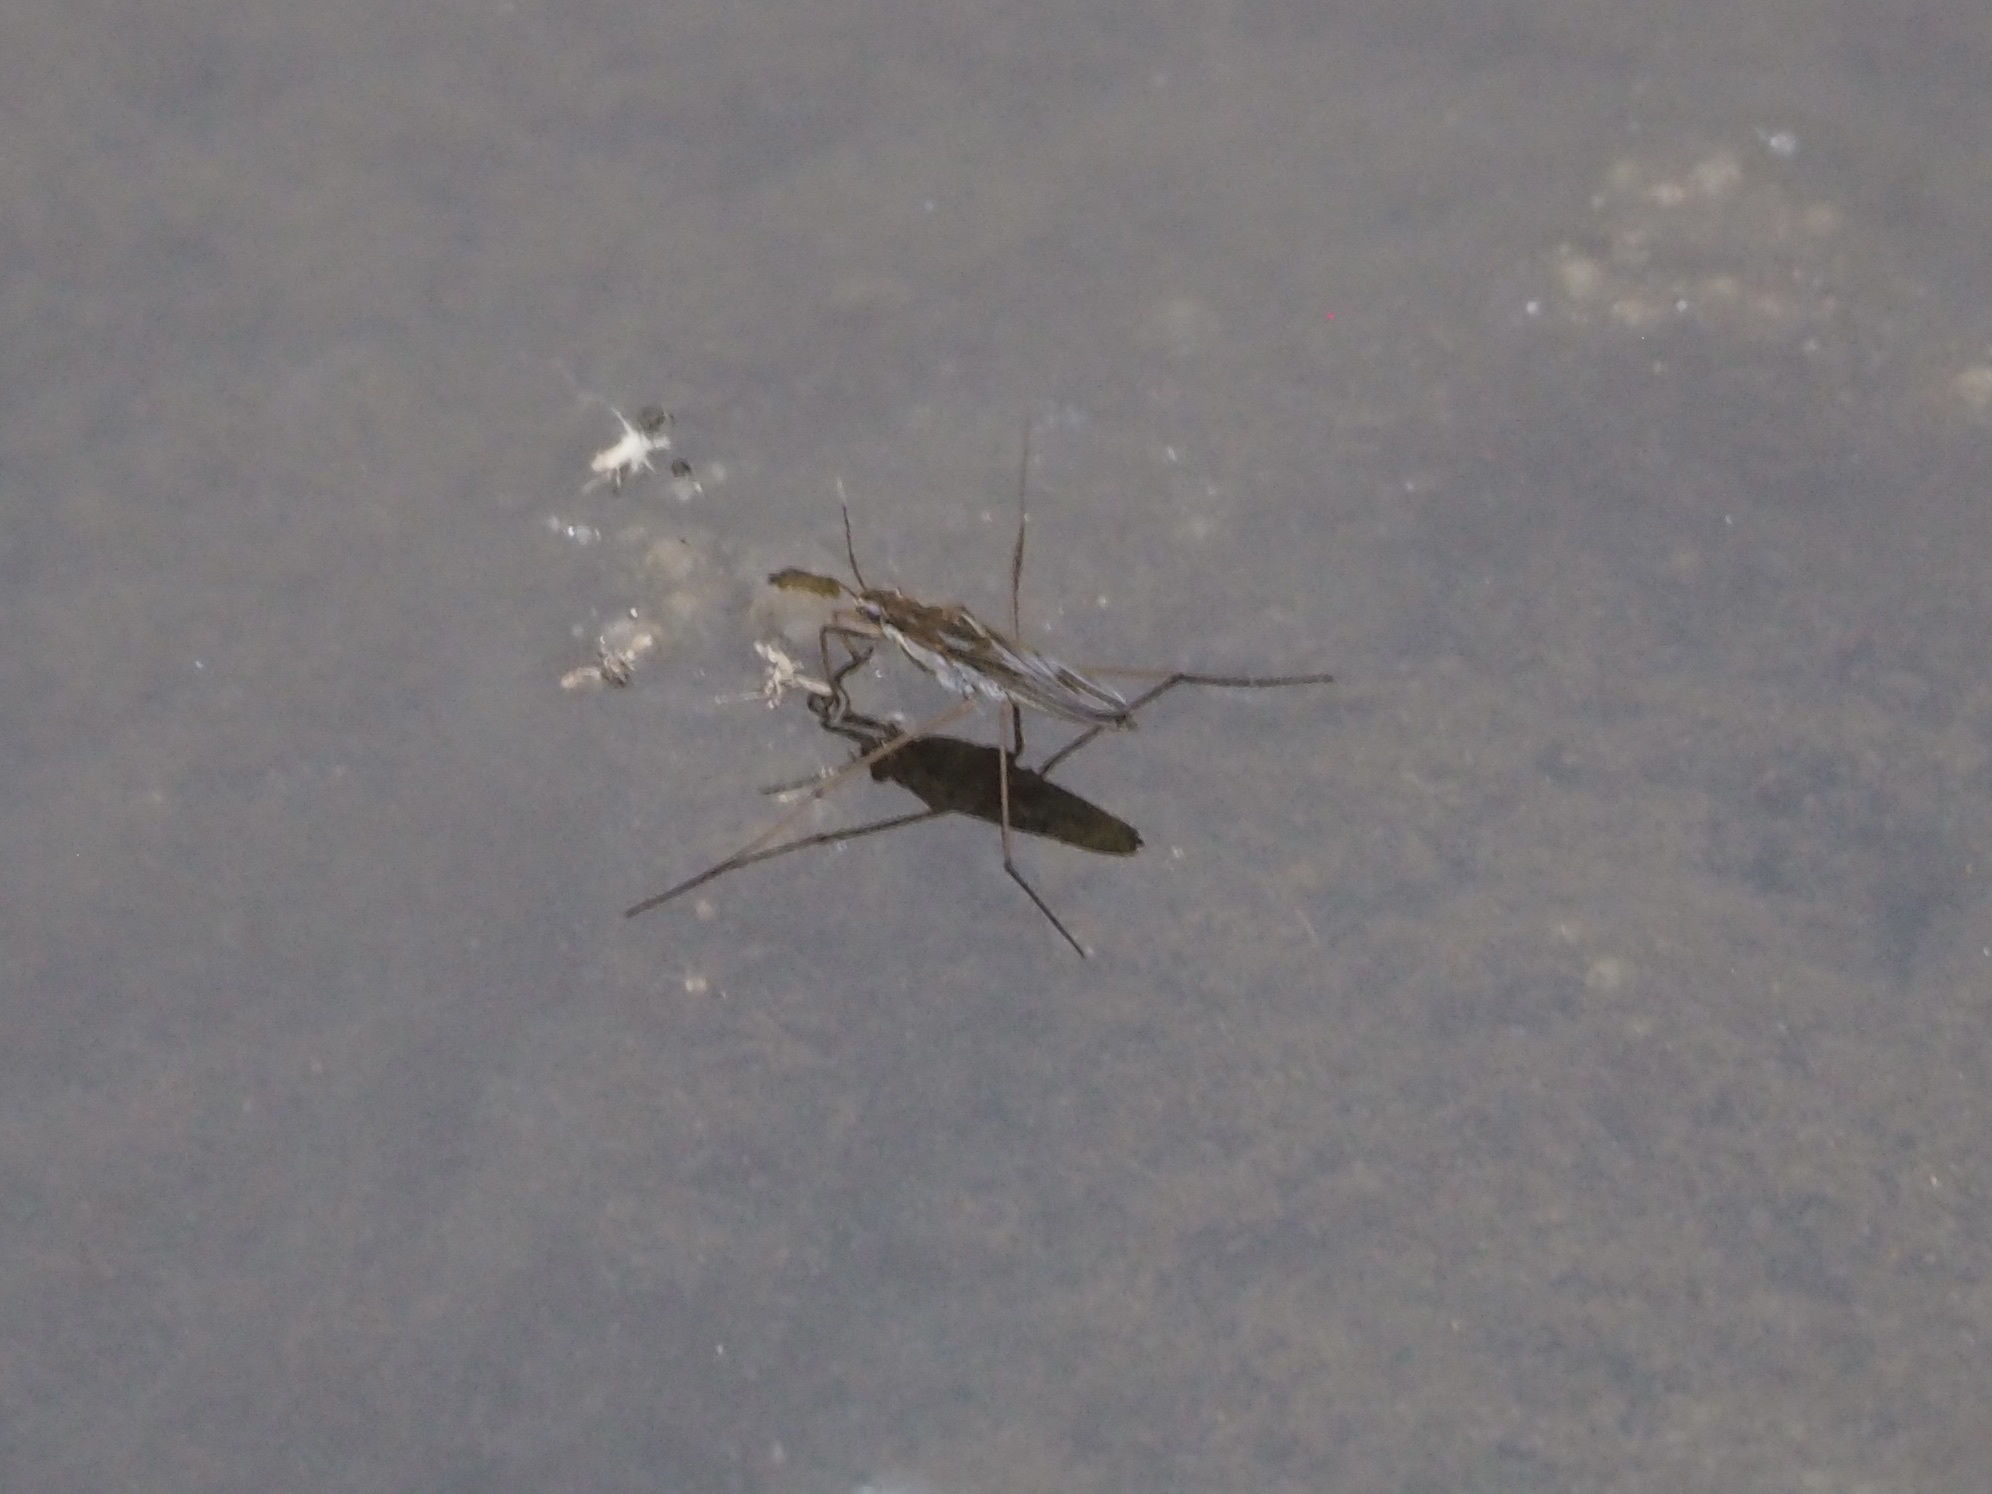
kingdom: Animalia
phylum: Arthropoda
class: Insecta
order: Hemiptera
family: Gerridae
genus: Gerris
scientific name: Gerris latiabdominis
